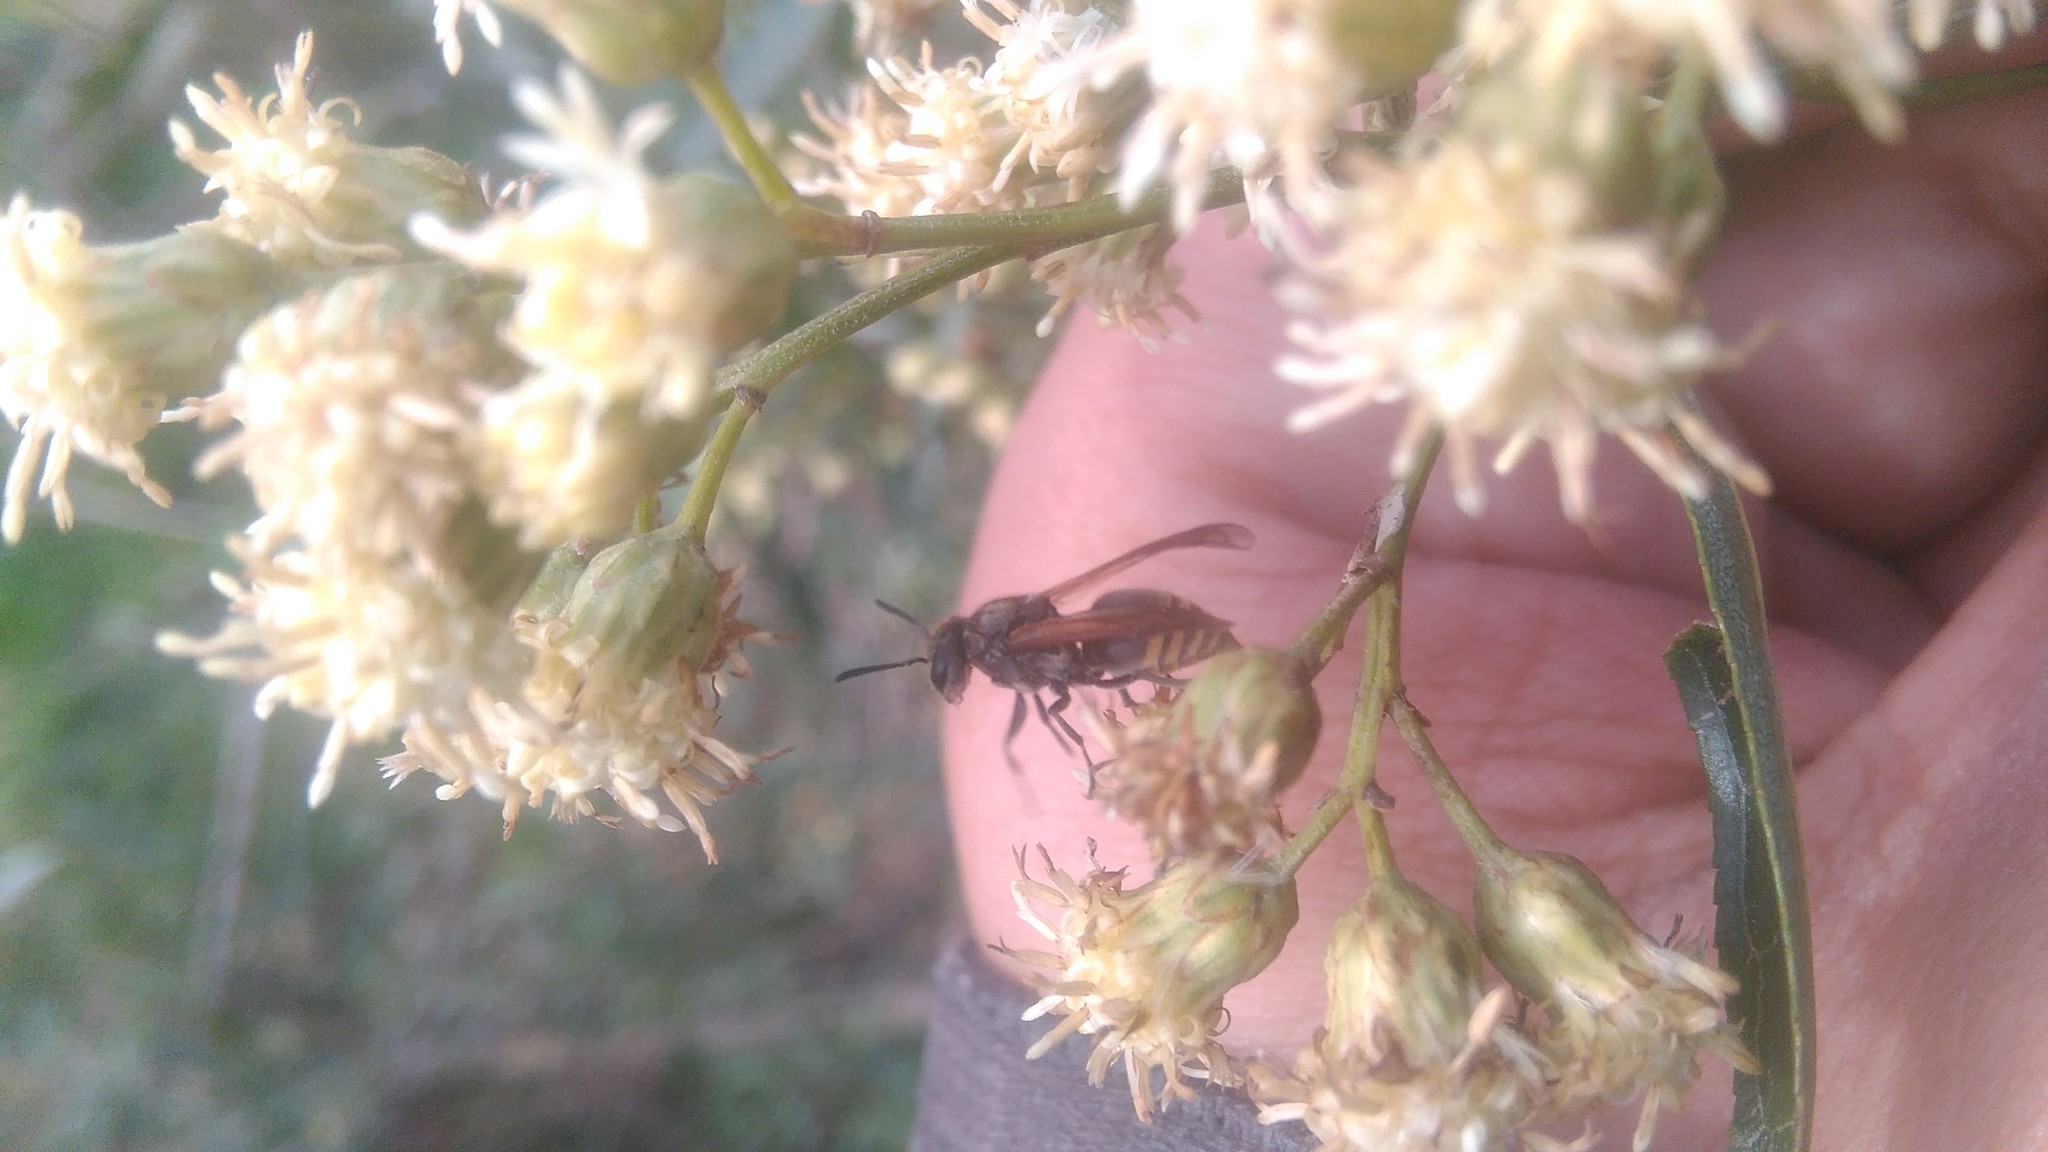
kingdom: Animalia
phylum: Arthropoda
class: Insecta
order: Hymenoptera
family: Vespidae
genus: Brachygastra
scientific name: Brachygastra lecheguana
